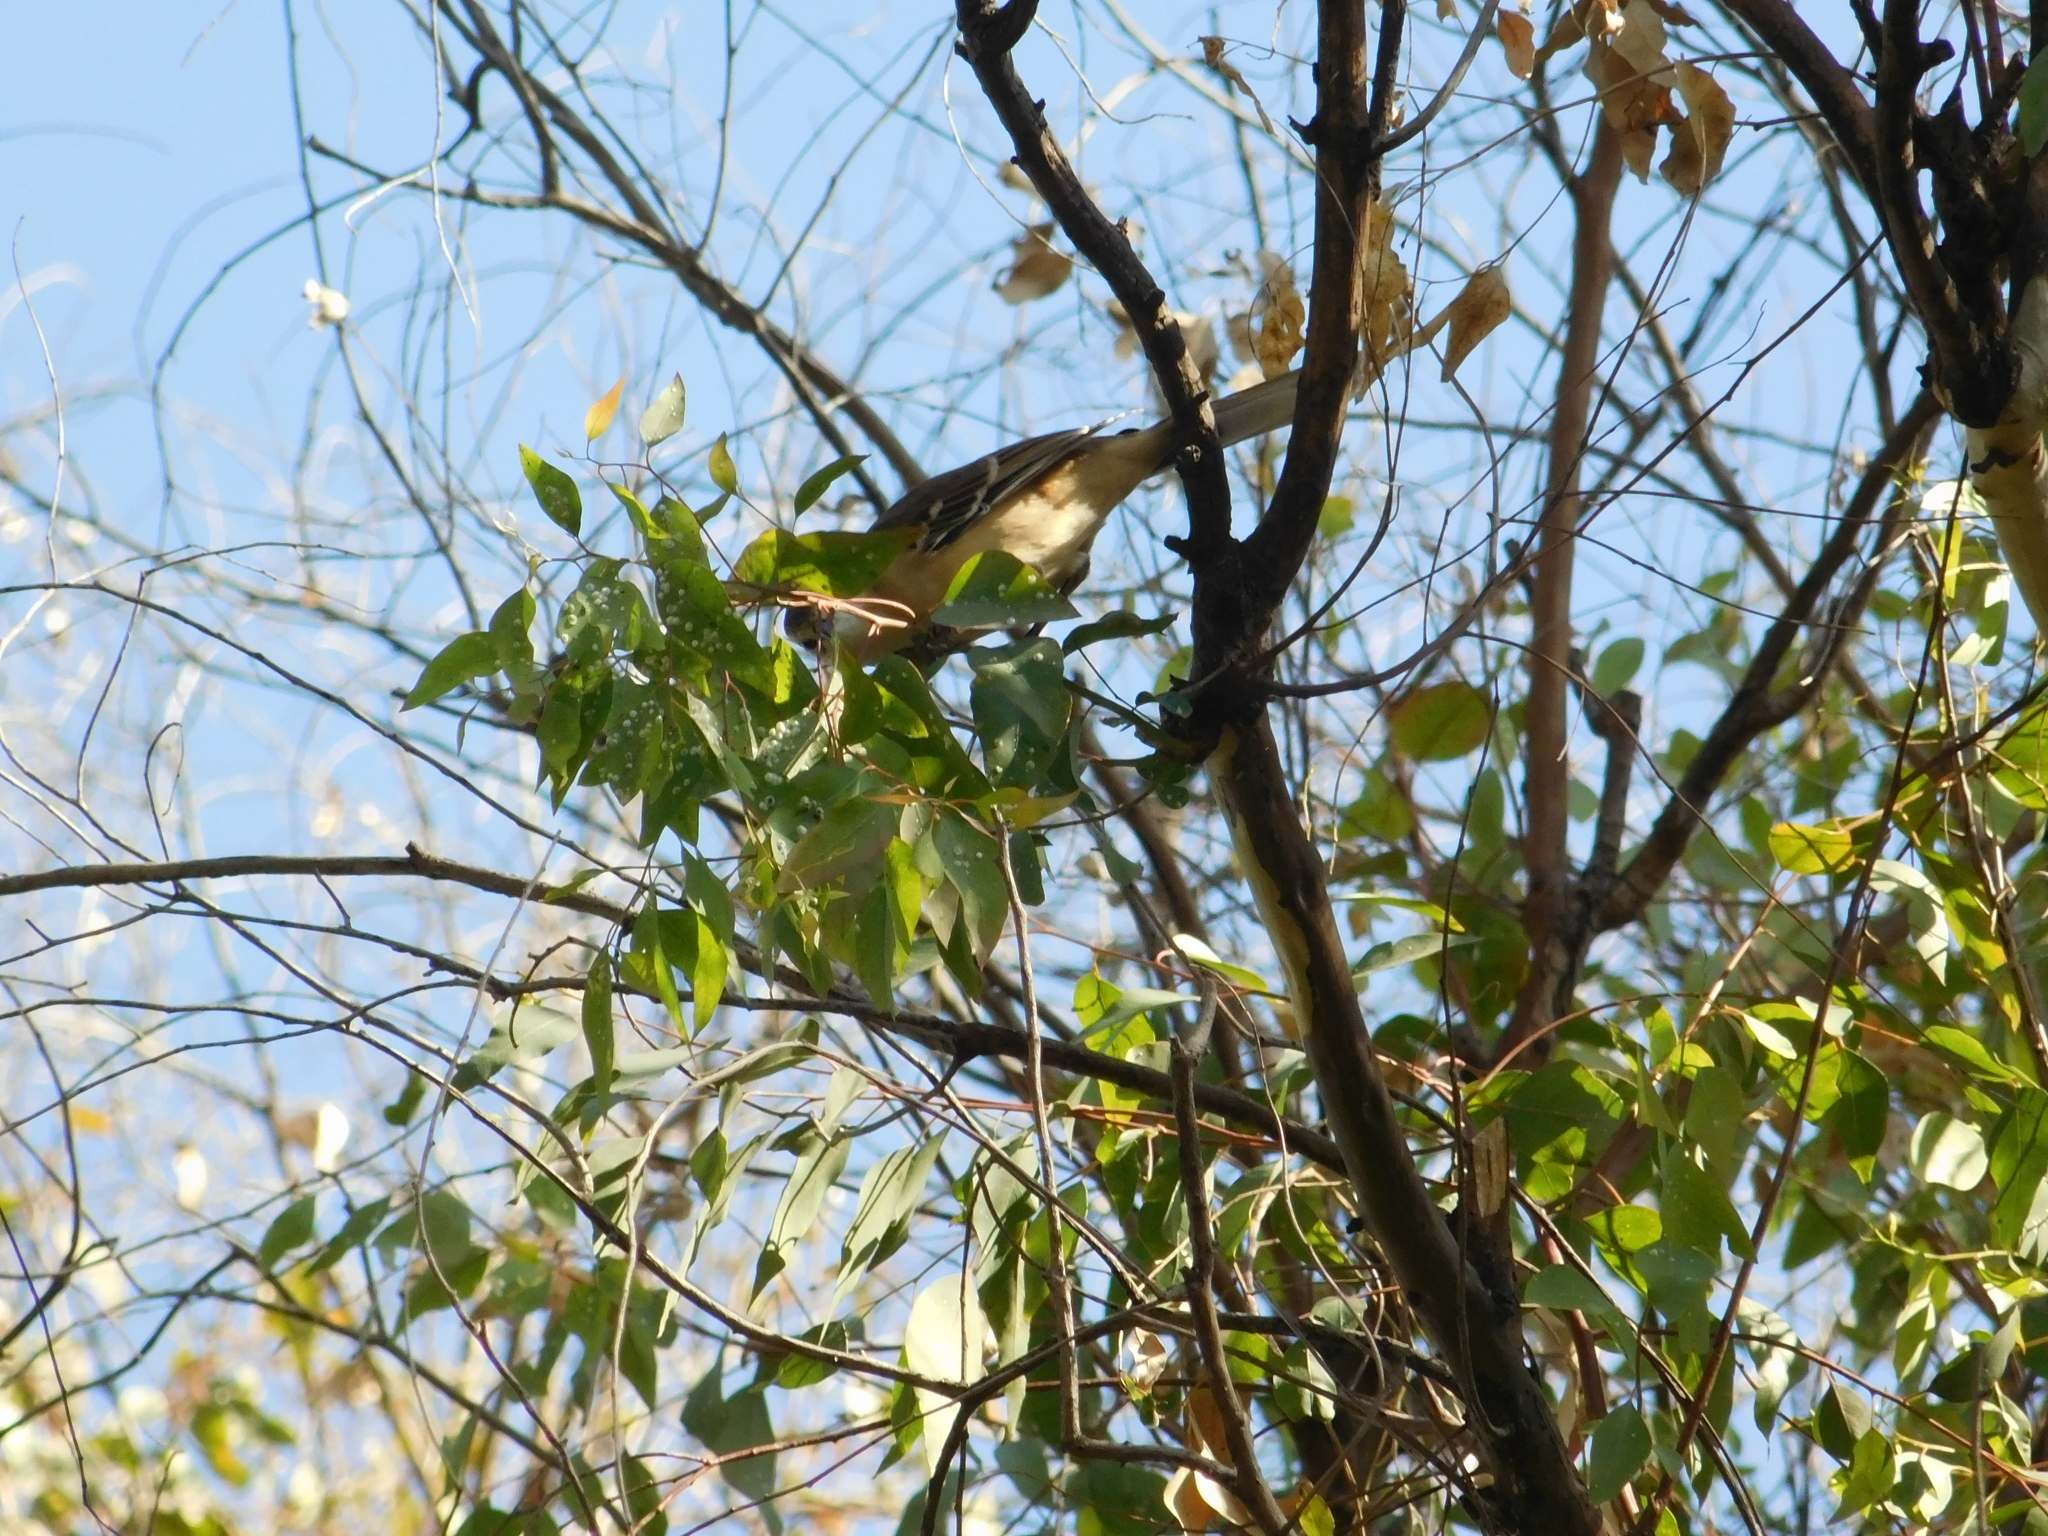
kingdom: Animalia
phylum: Chordata
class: Aves
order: Passeriformes
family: Mimidae
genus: Mimus
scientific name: Mimus saturninus
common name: Chalk-browed mockingbird
